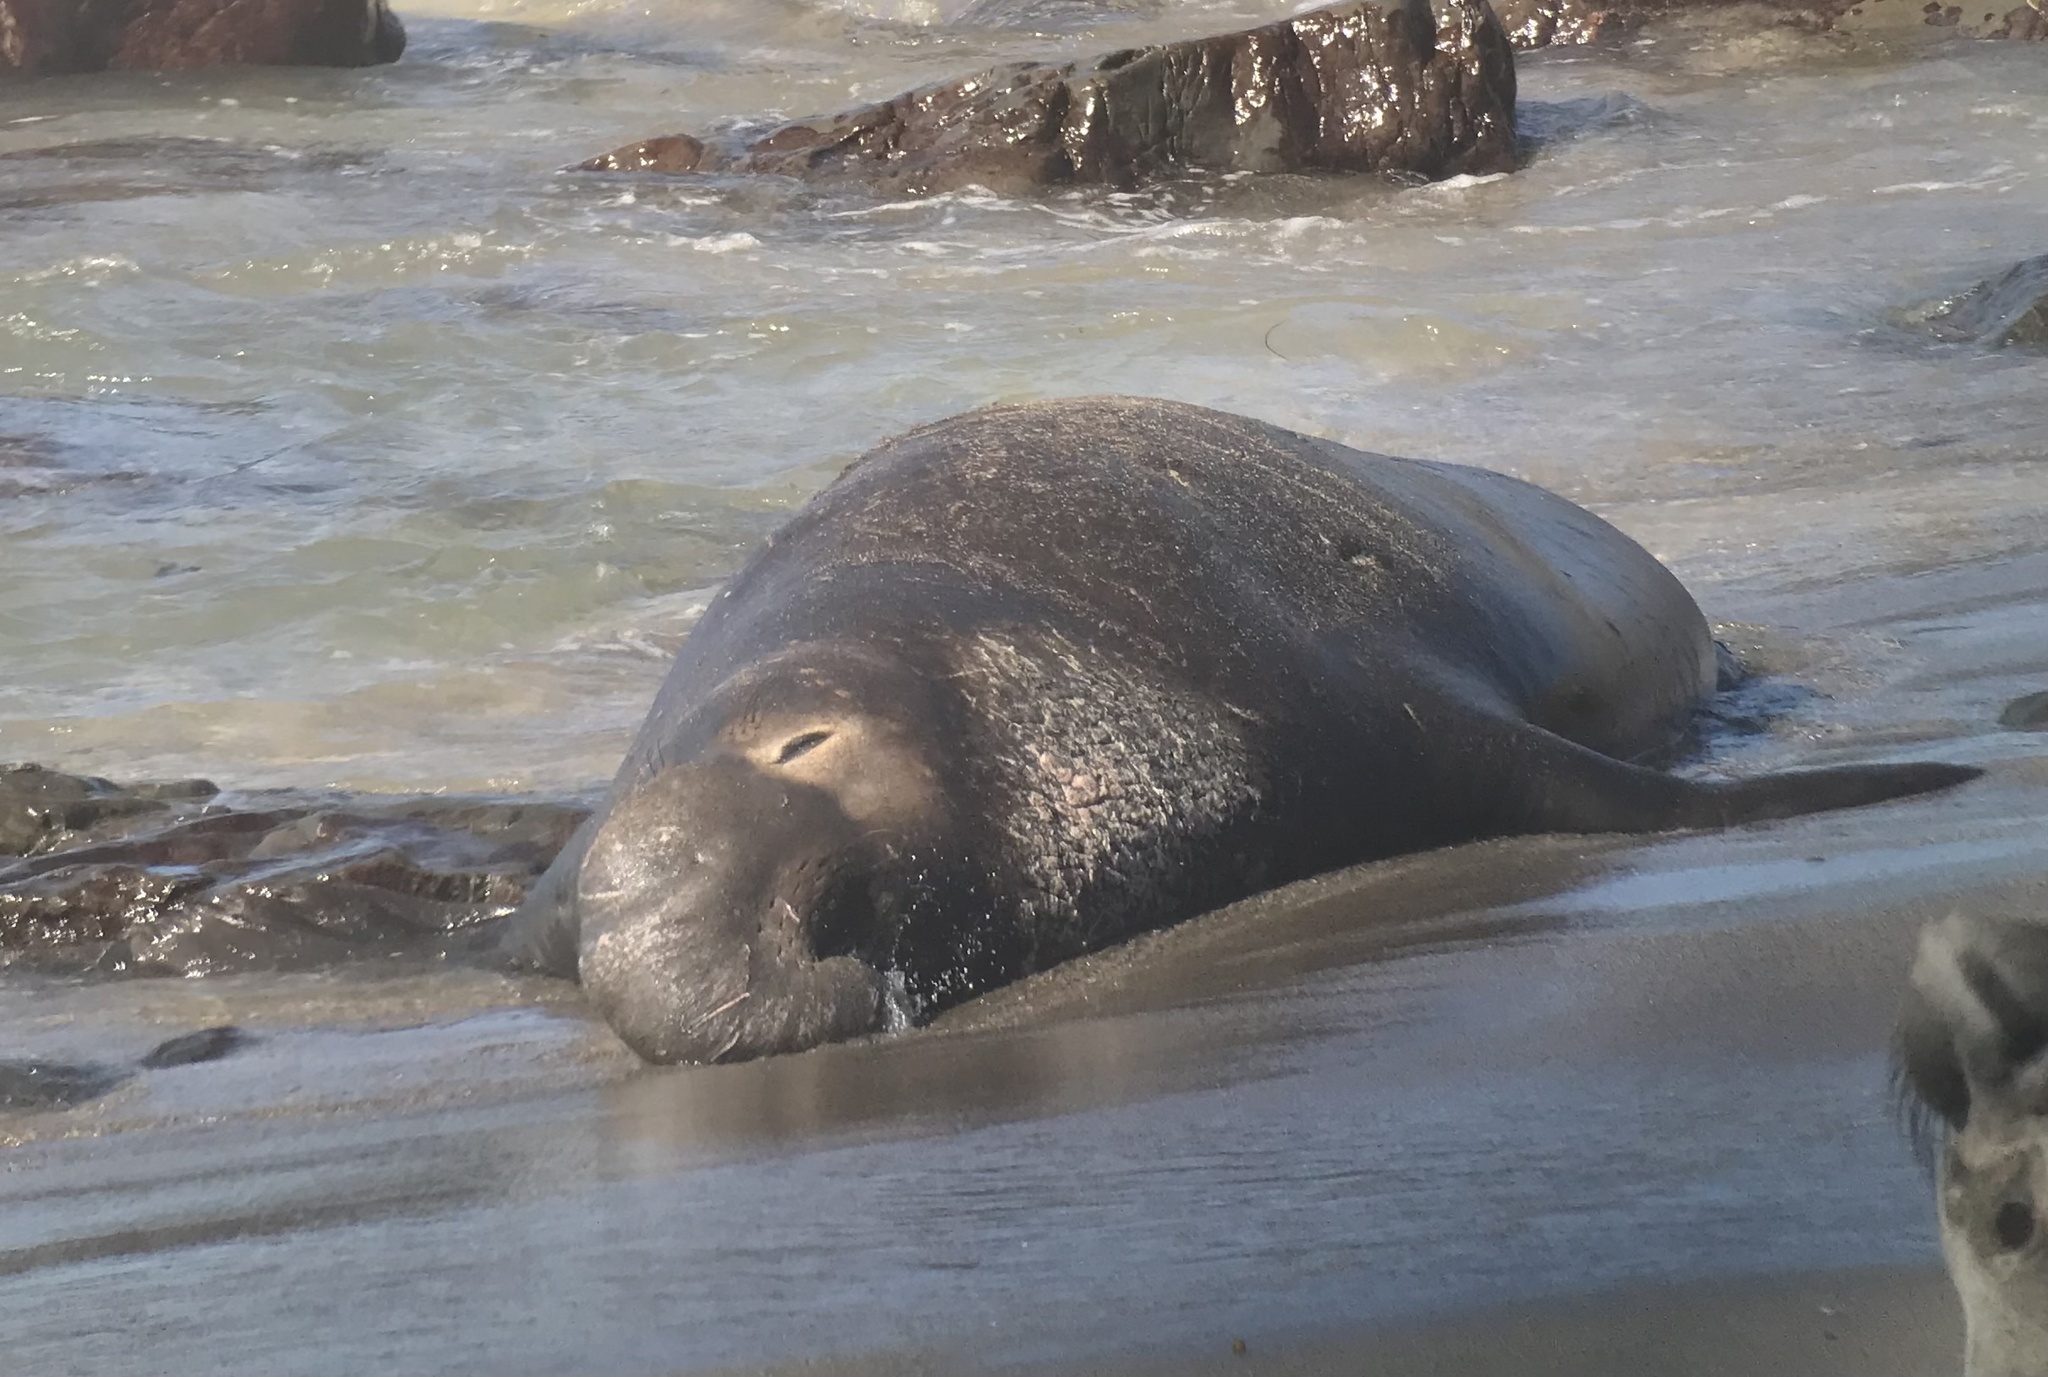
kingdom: Animalia
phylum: Chordata
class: Mammalia
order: Carnivora
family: Phocidae
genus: Mirounga
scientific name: Mirounga angustirostris
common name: Northern elephant seal
